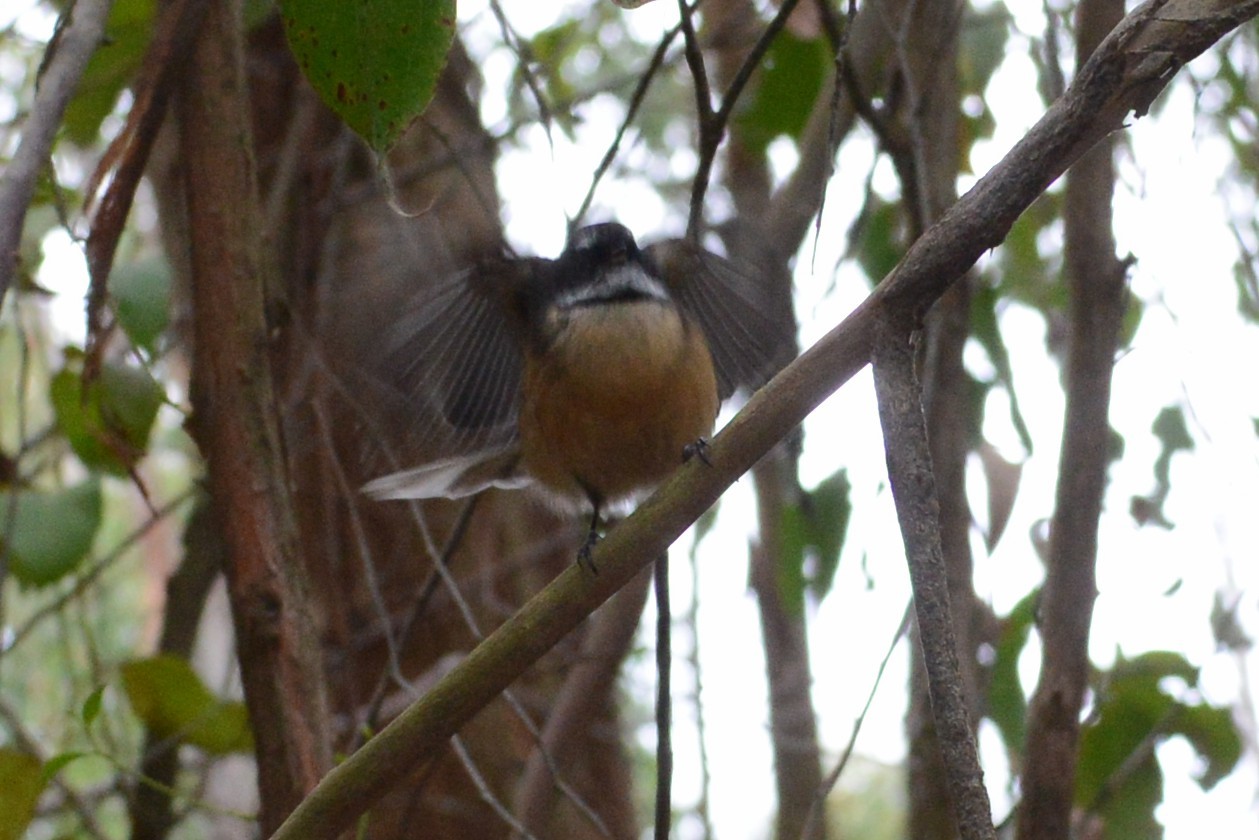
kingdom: Animalia
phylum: Chordata
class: Aves
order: Passeriformes
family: Rhipiduridae
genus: Rhipidura
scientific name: Rhipidura fuliginosa
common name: New zealand fantail
